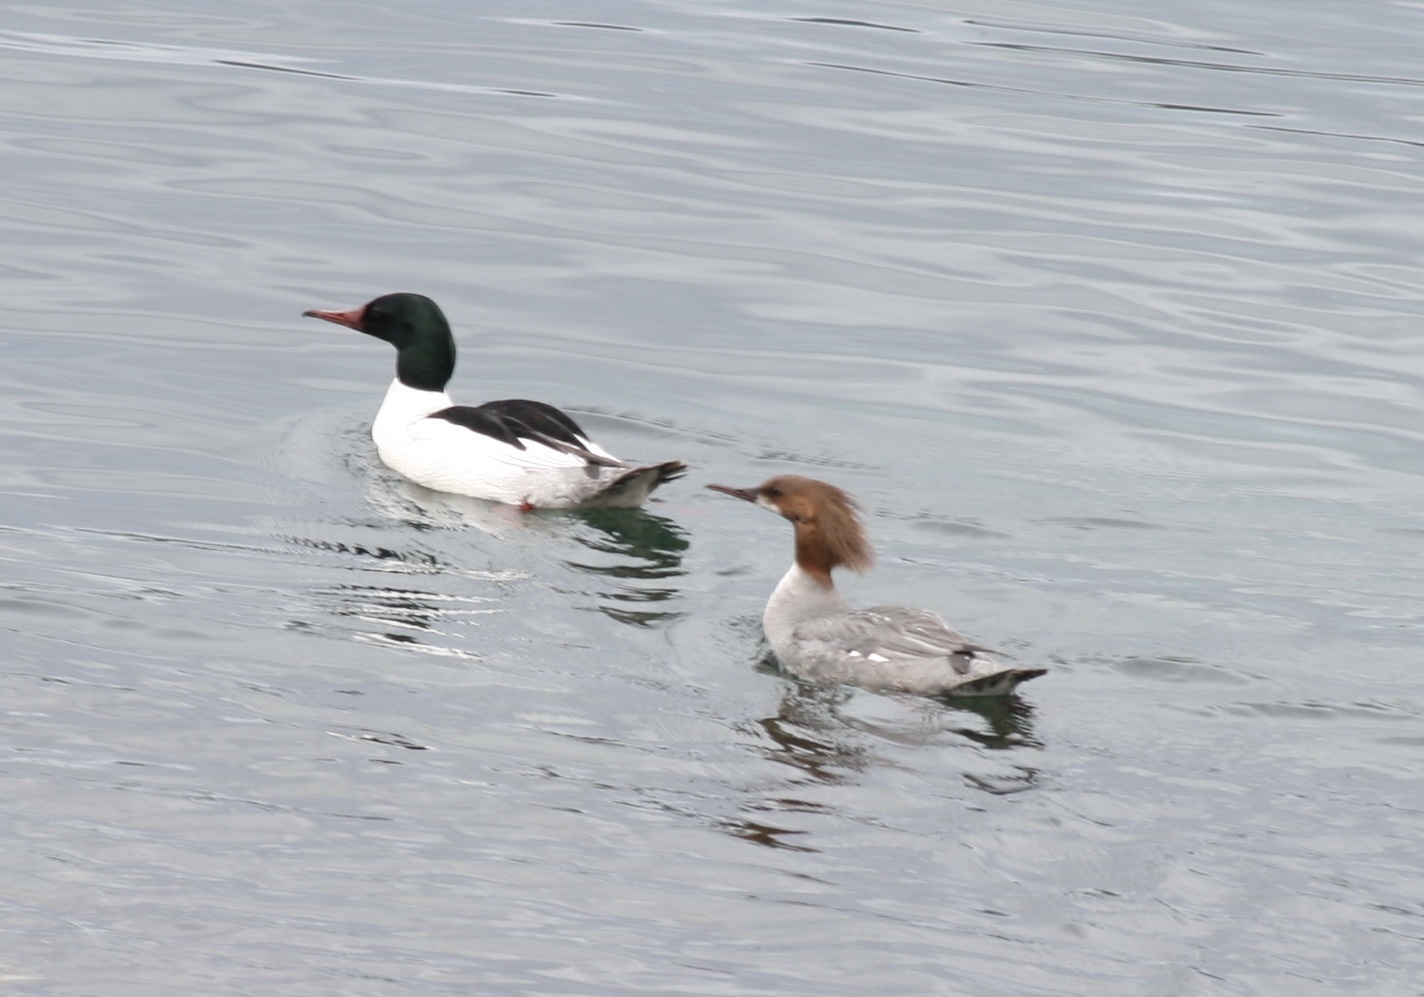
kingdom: Animalia
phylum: Chordata
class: Aves
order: Anseriformes
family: Anatidae
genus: Mergus
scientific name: Mergus merganser
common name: Common merganser
